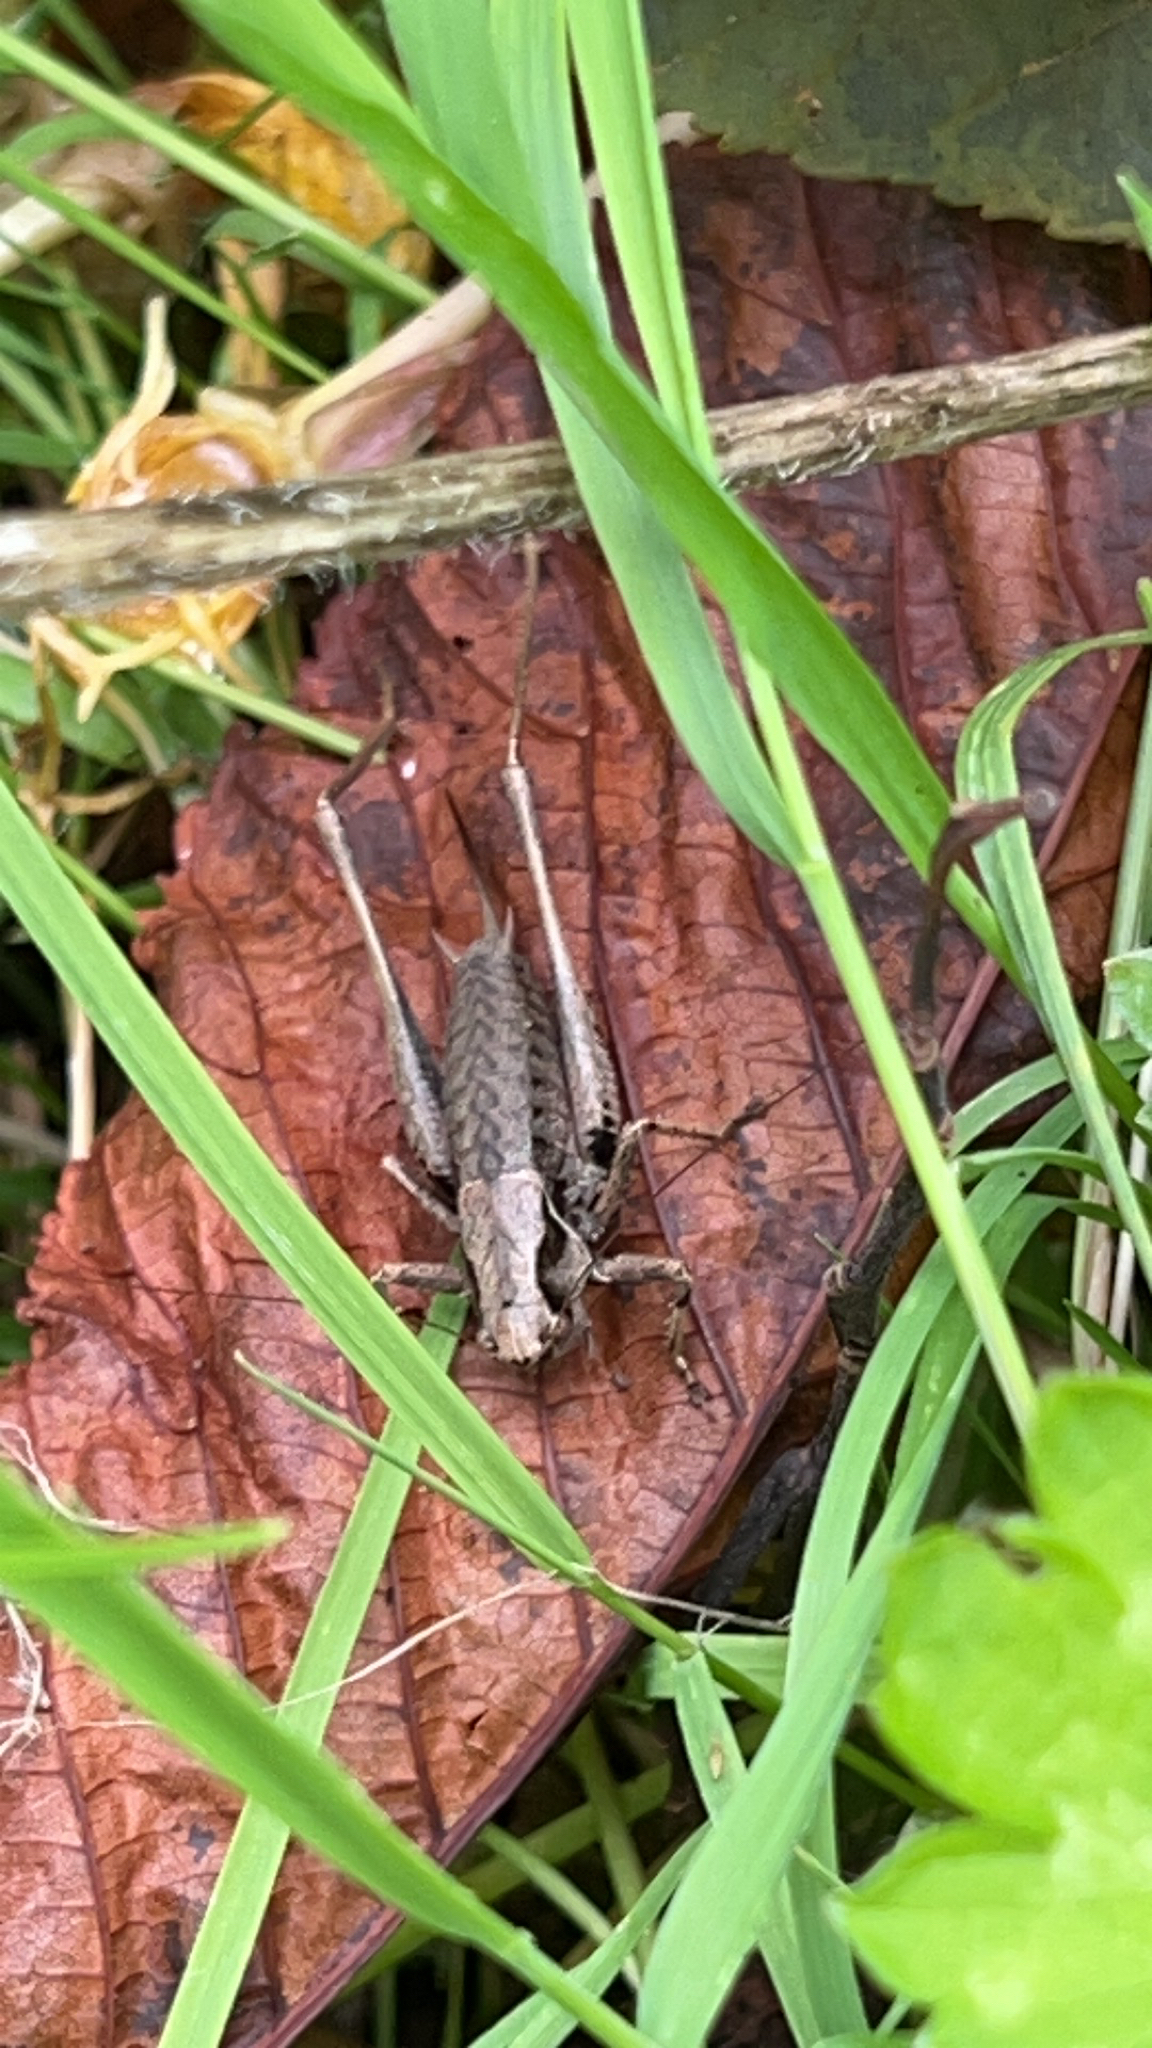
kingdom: Animalia
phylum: Arthropoda
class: Insecta
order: Orthoptera
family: Tettigoniidae
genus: Pholidoptera
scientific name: Pholidoptera griseoaptera
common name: Dark bush-cricket
